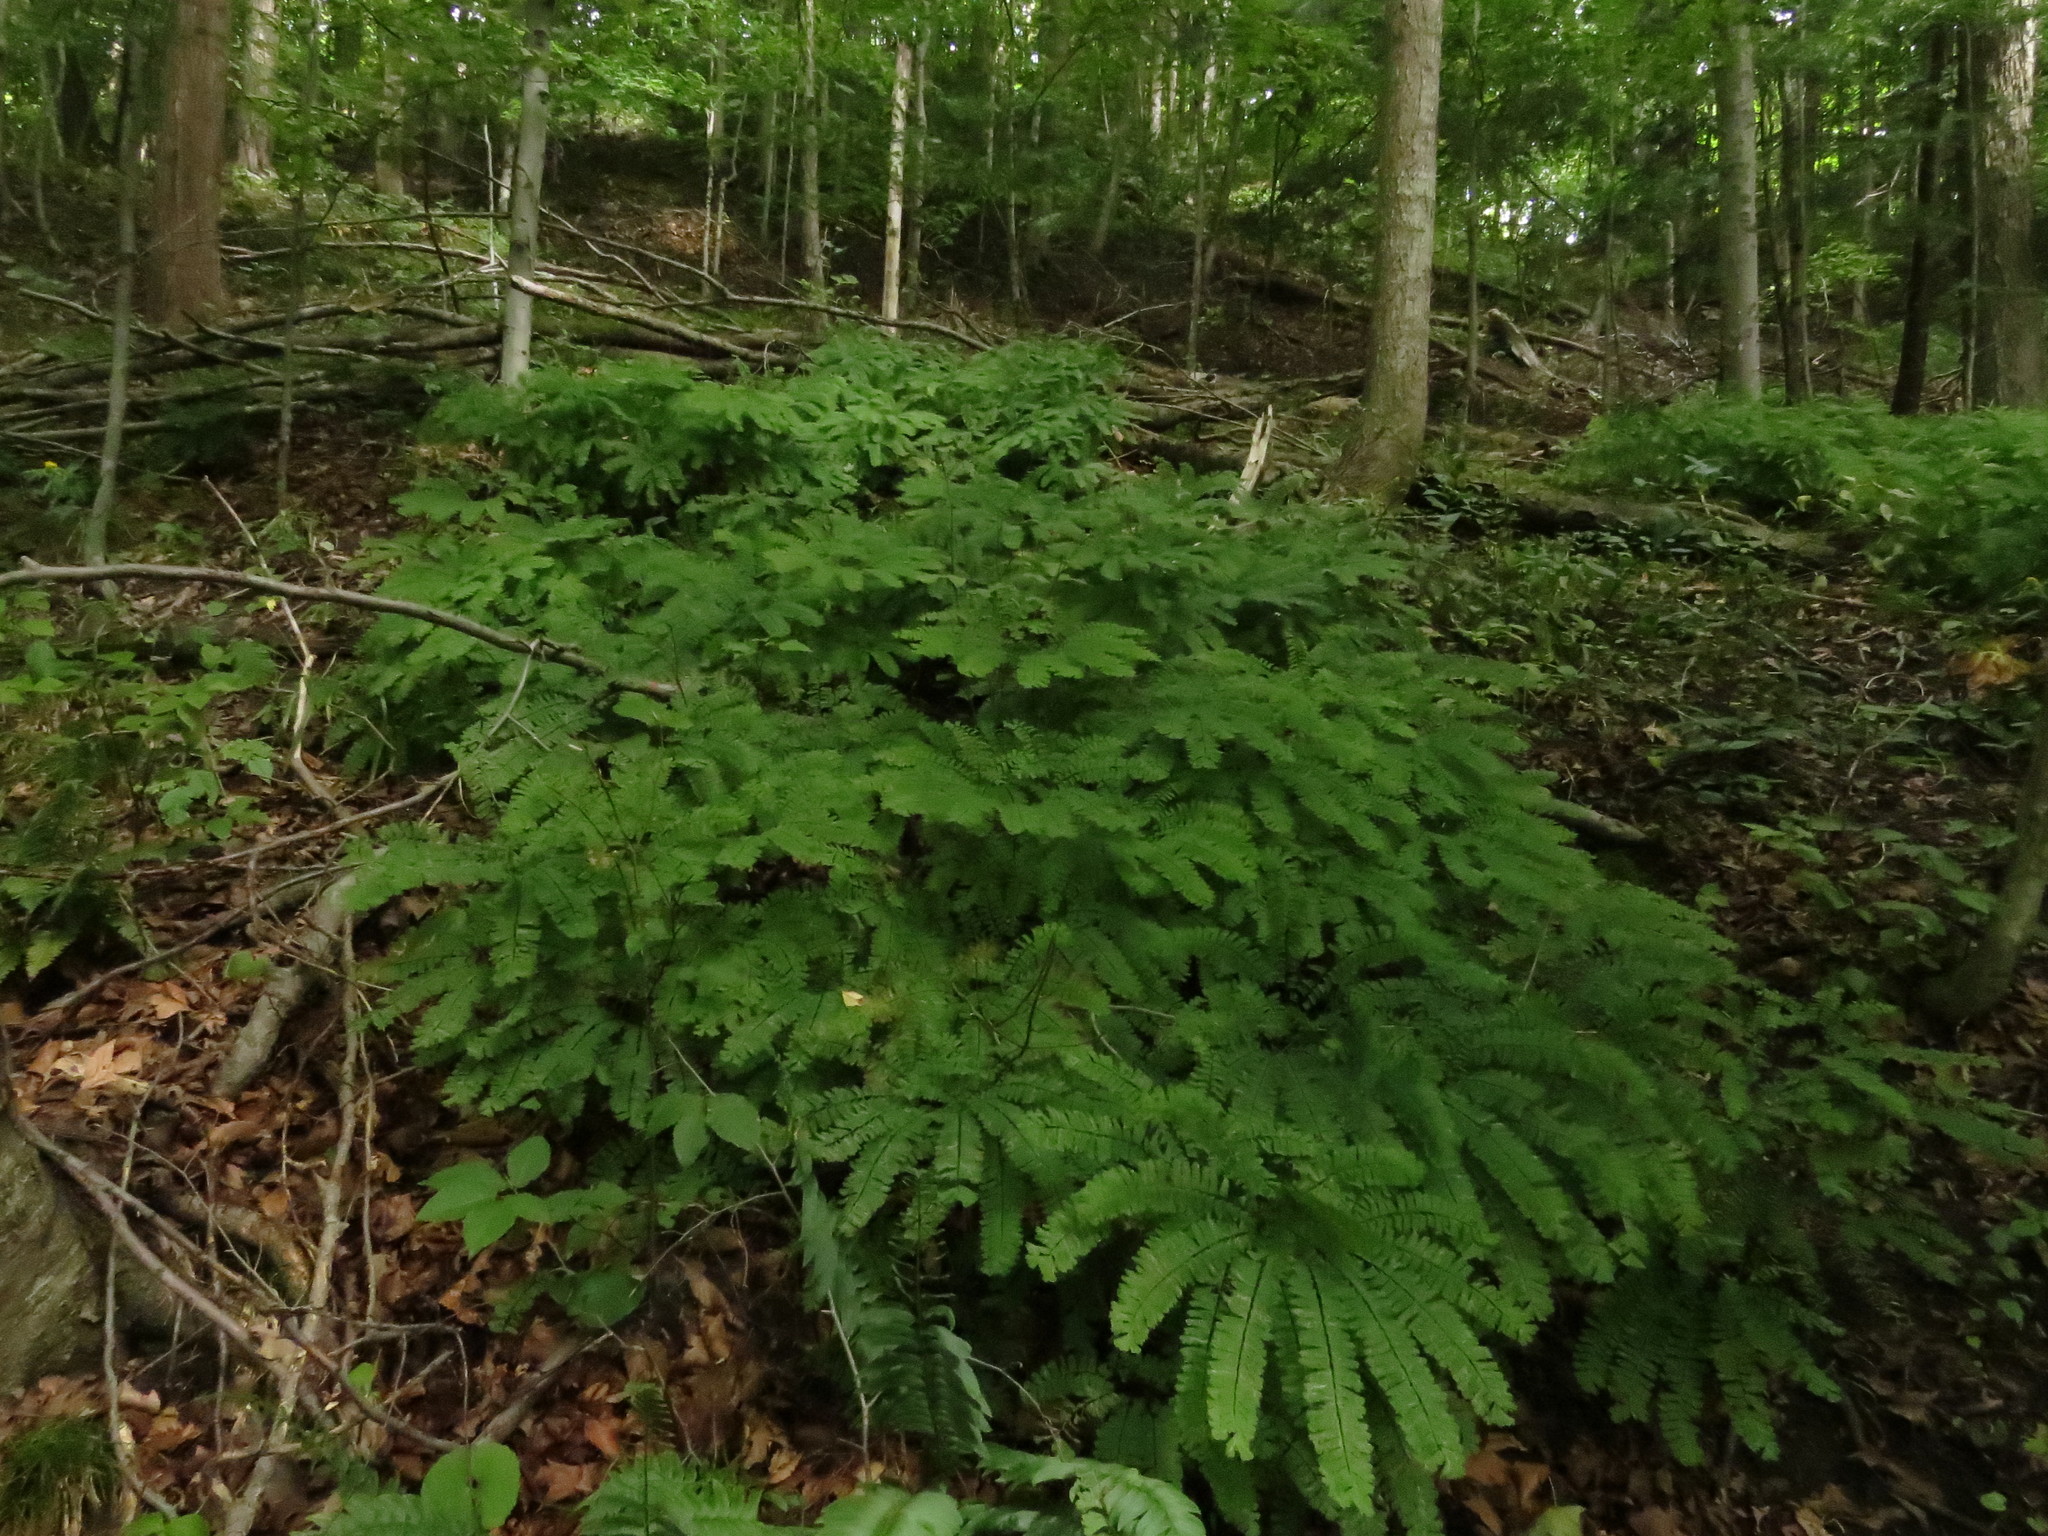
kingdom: Plantae
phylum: Tracheophyta
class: Polypodiopsida
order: Polypodiales
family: Pteridaceae
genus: Adiantum
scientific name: Adiantum pedatum
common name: Five-finger fern
